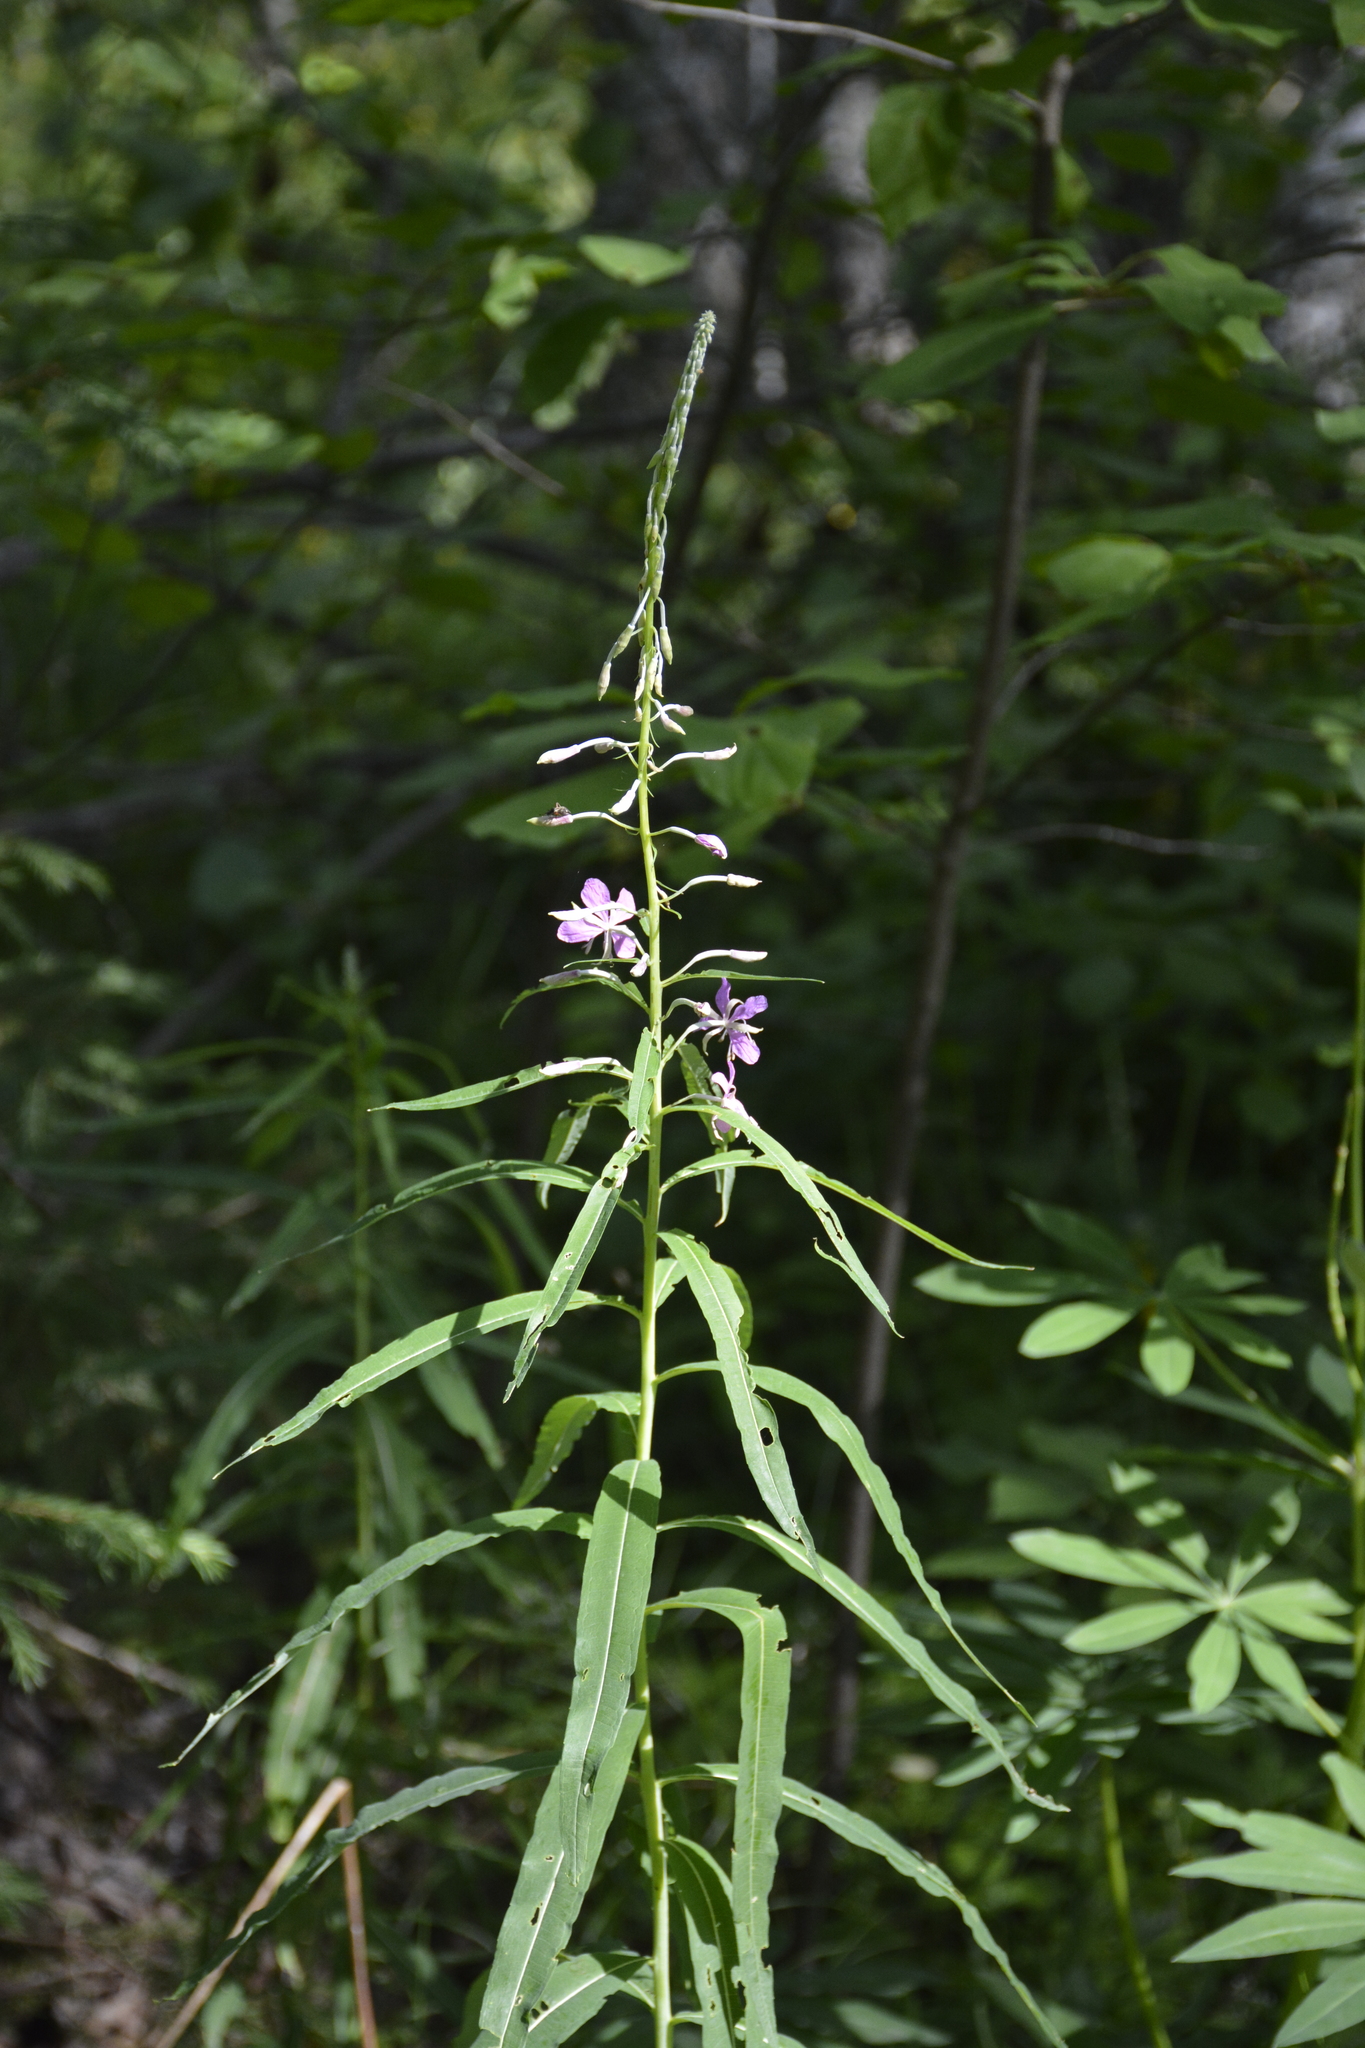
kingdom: Plantae
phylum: Tracheophyta
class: Magnoliopsida
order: Myrtales
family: Onagraceae
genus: Chamaenerion
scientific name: Chamaenerion angustifolium
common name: Fireweed
